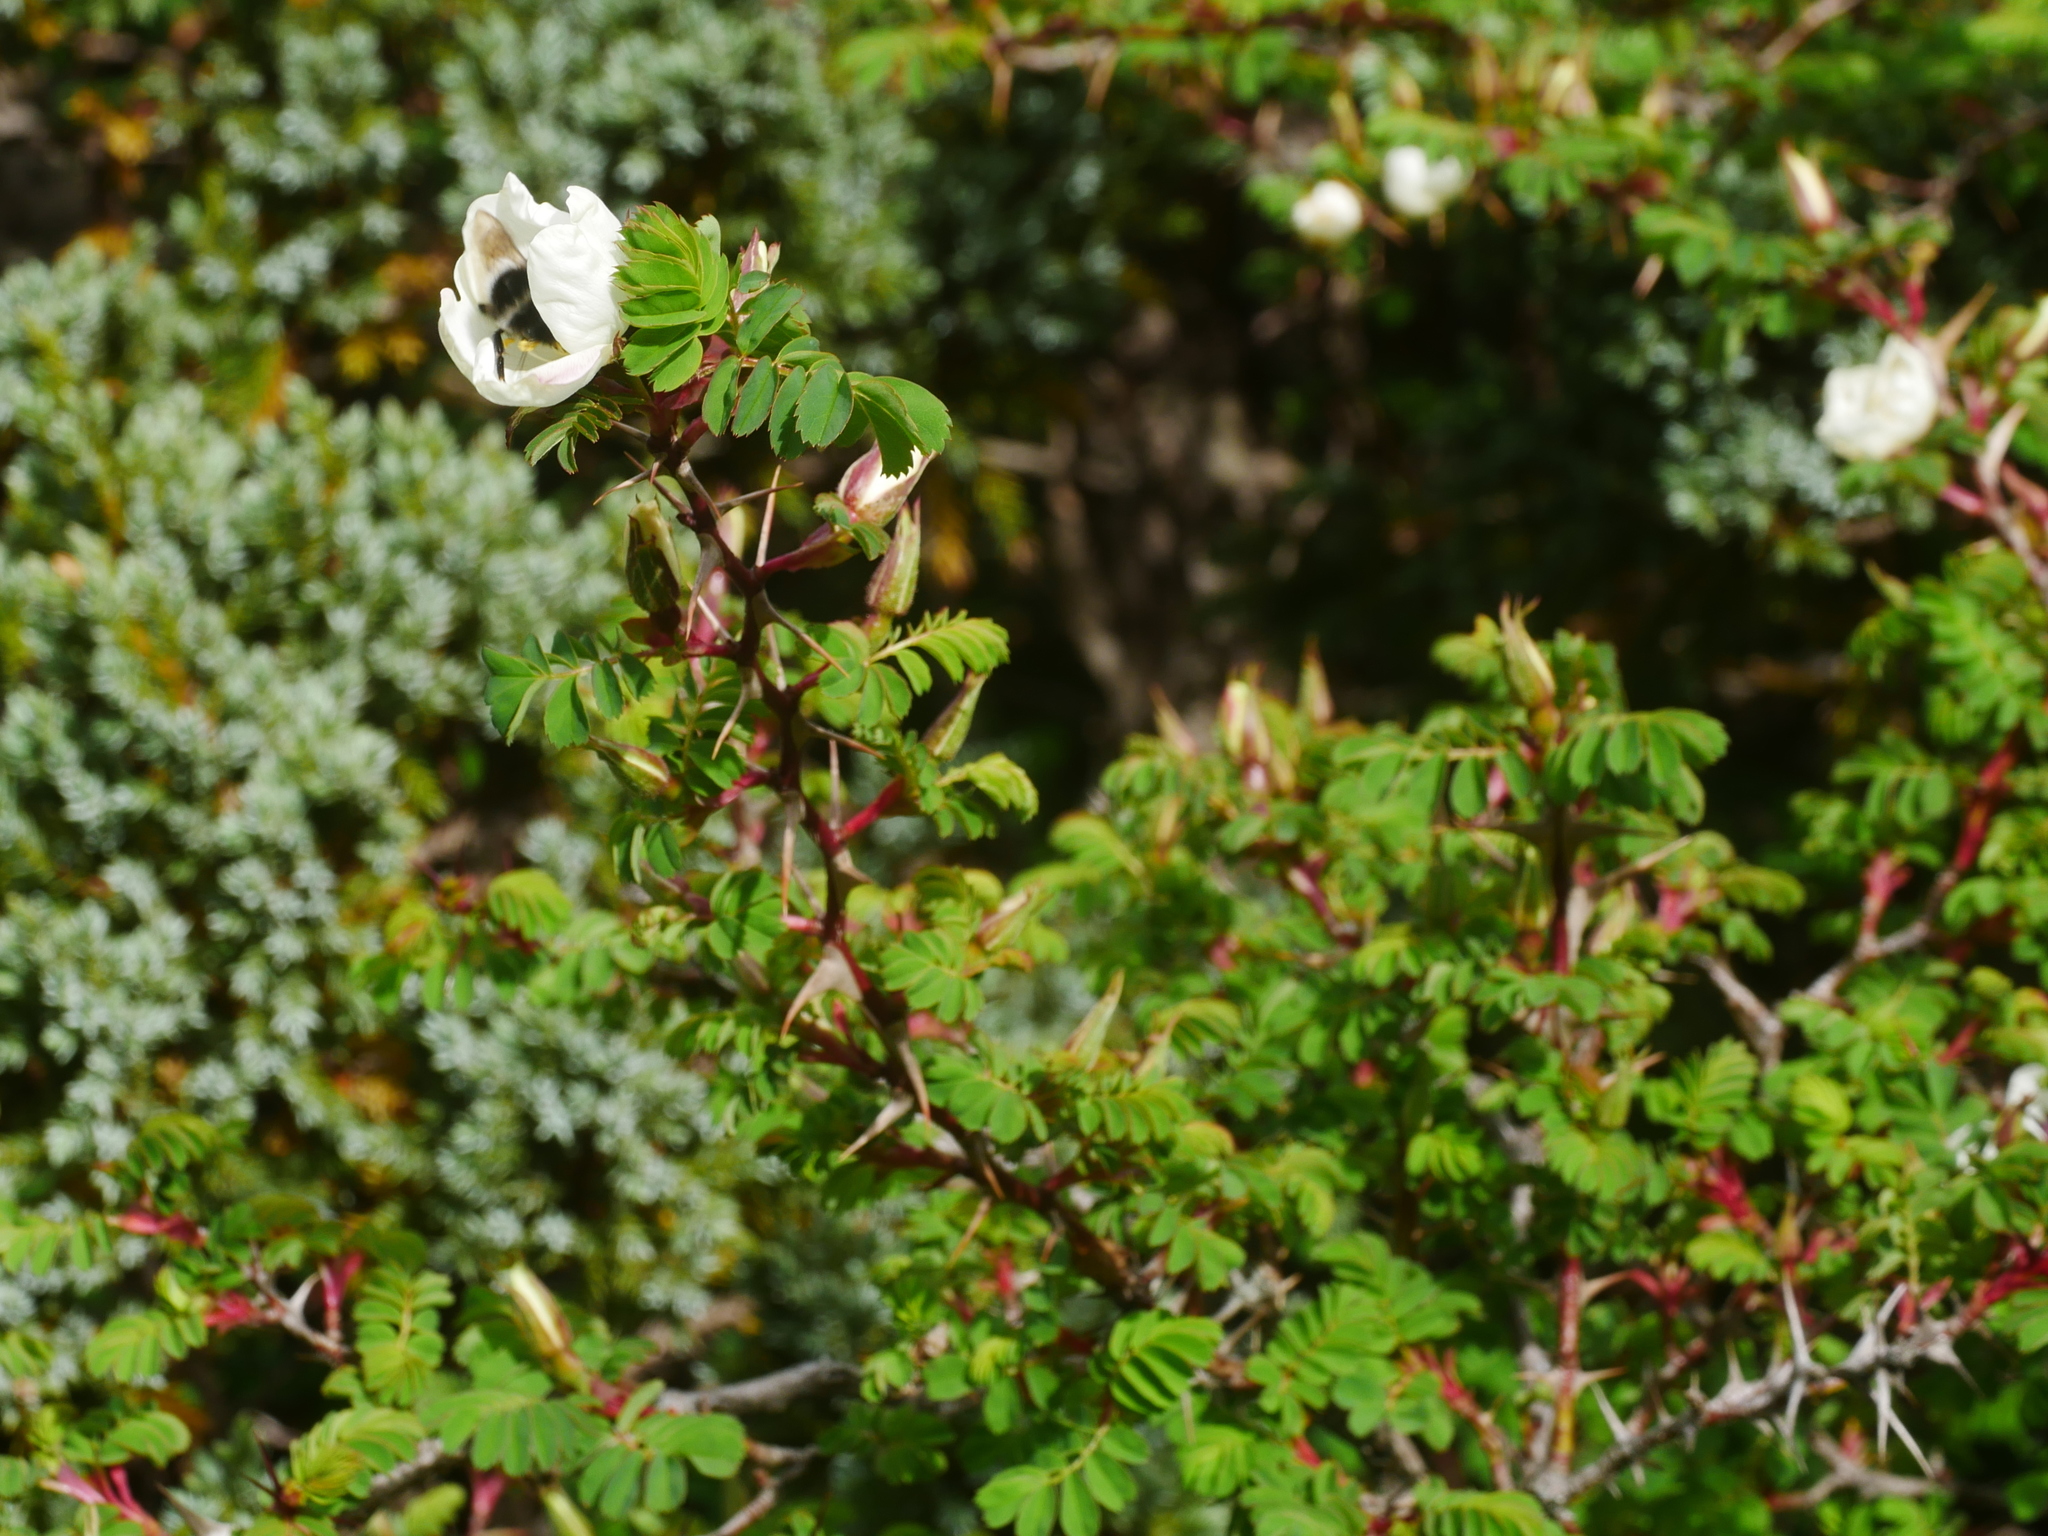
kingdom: Plantae
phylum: Tracheophyta
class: Magnoliopsida
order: Rosales
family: Rosaceae
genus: Rosa
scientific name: Rosa morrisonensis
